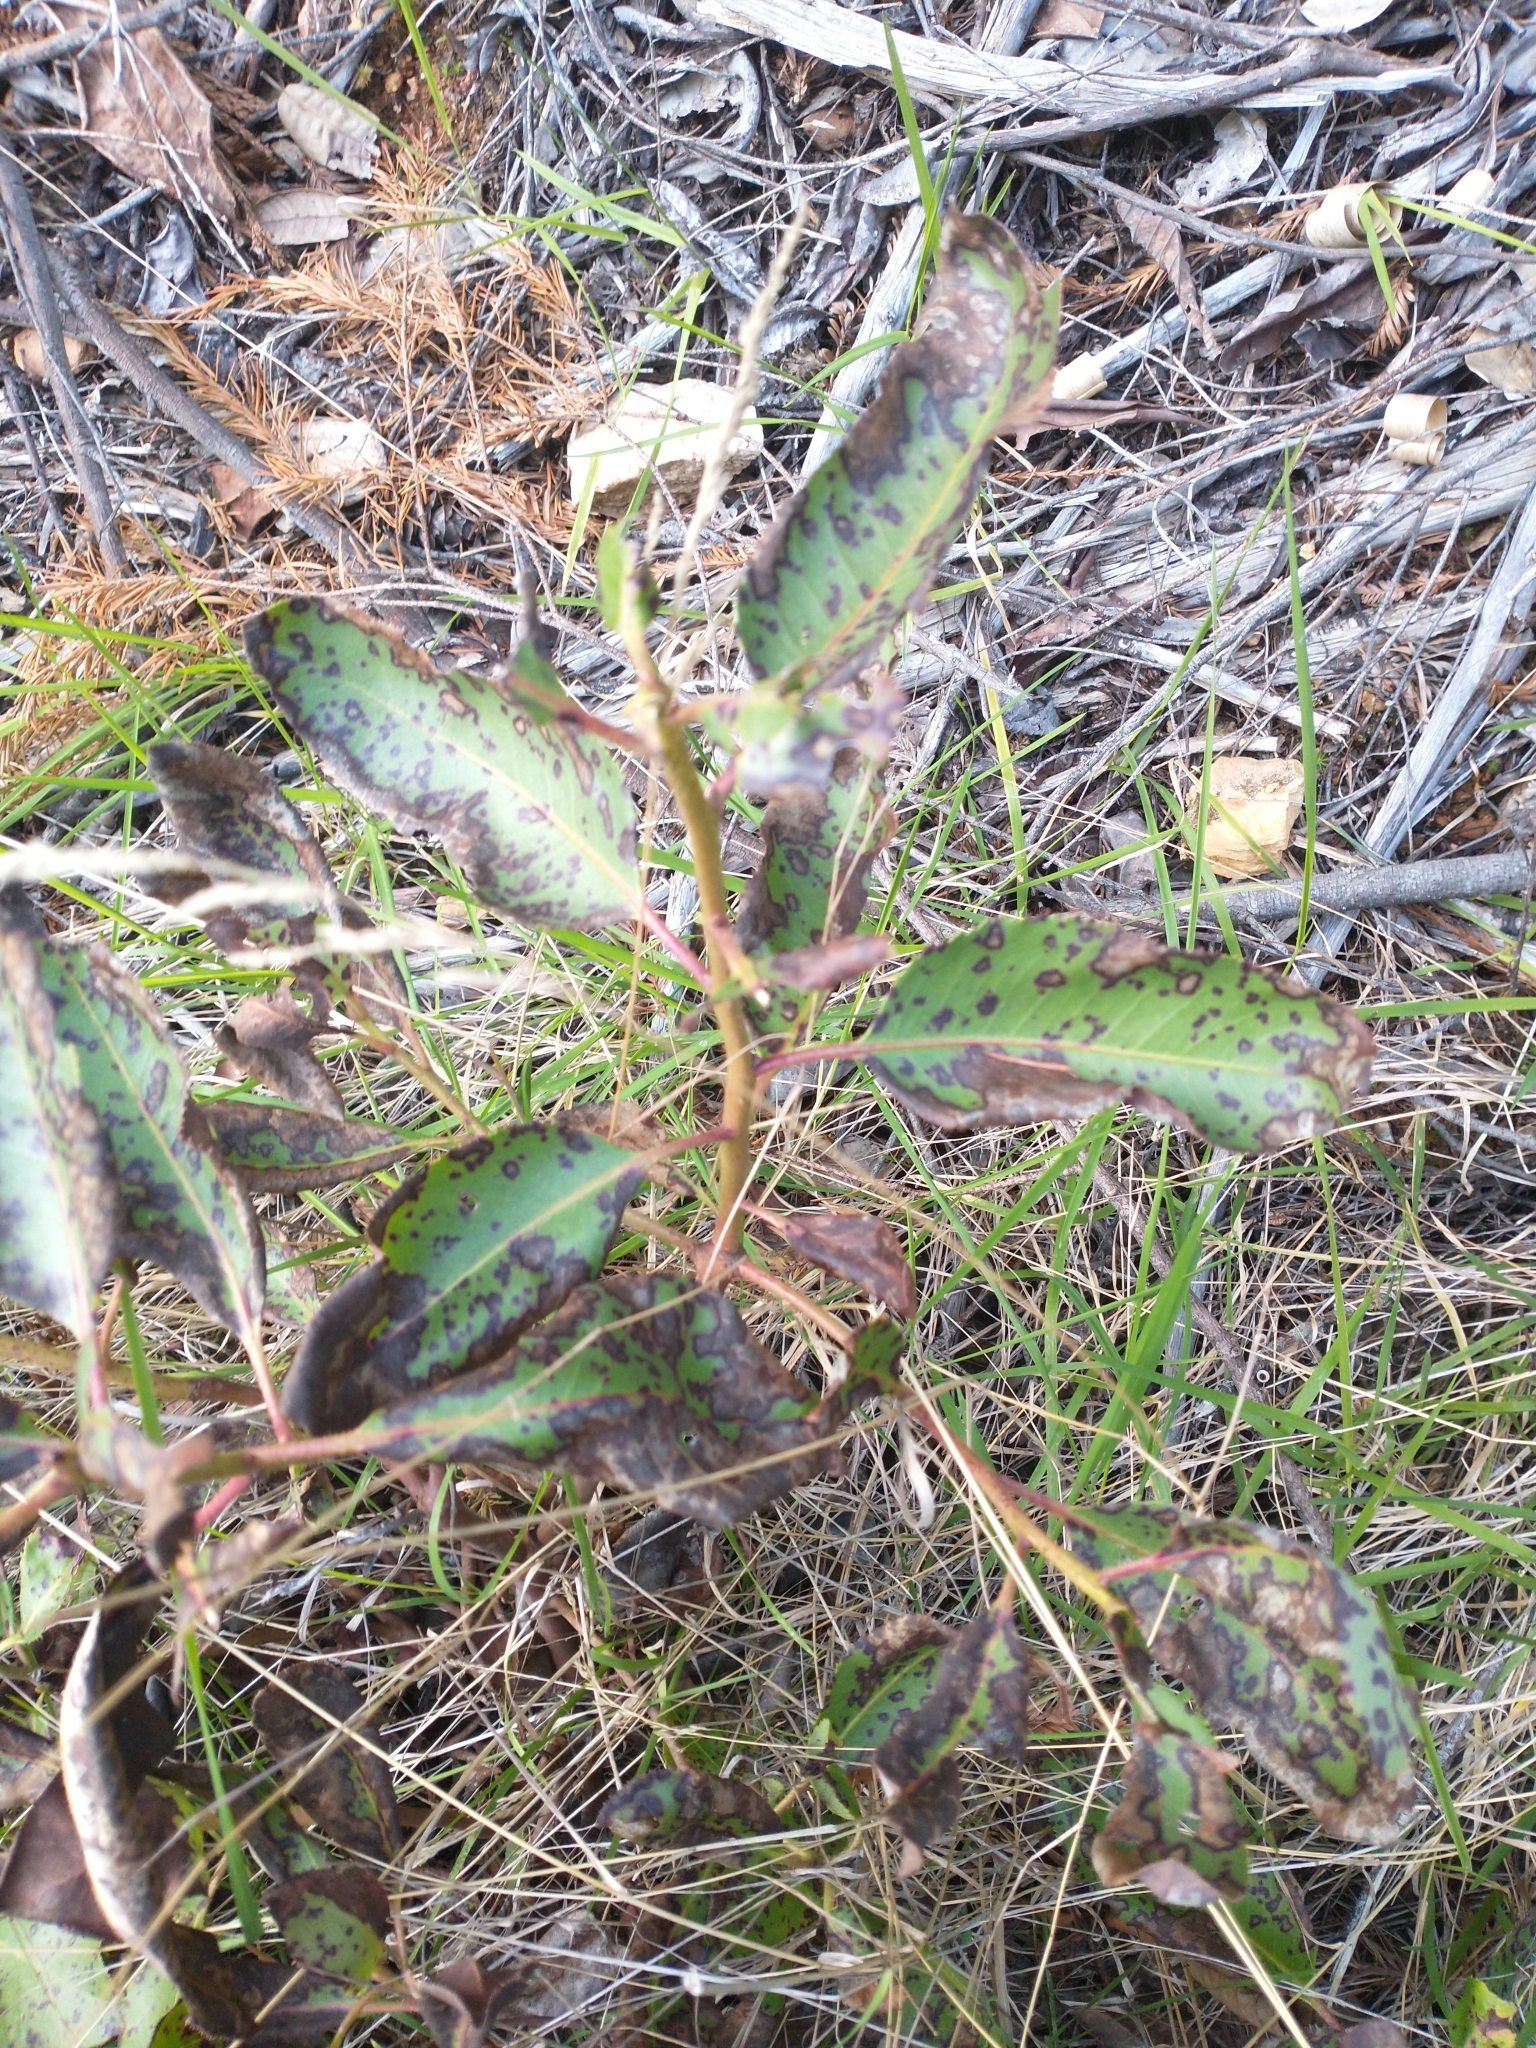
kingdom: Plantae
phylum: Tracheophyta
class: Magnoliopsida
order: Ericales
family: Ericaceae
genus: Arbutus
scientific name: Arbutus menziesii
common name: Pacific madrone
